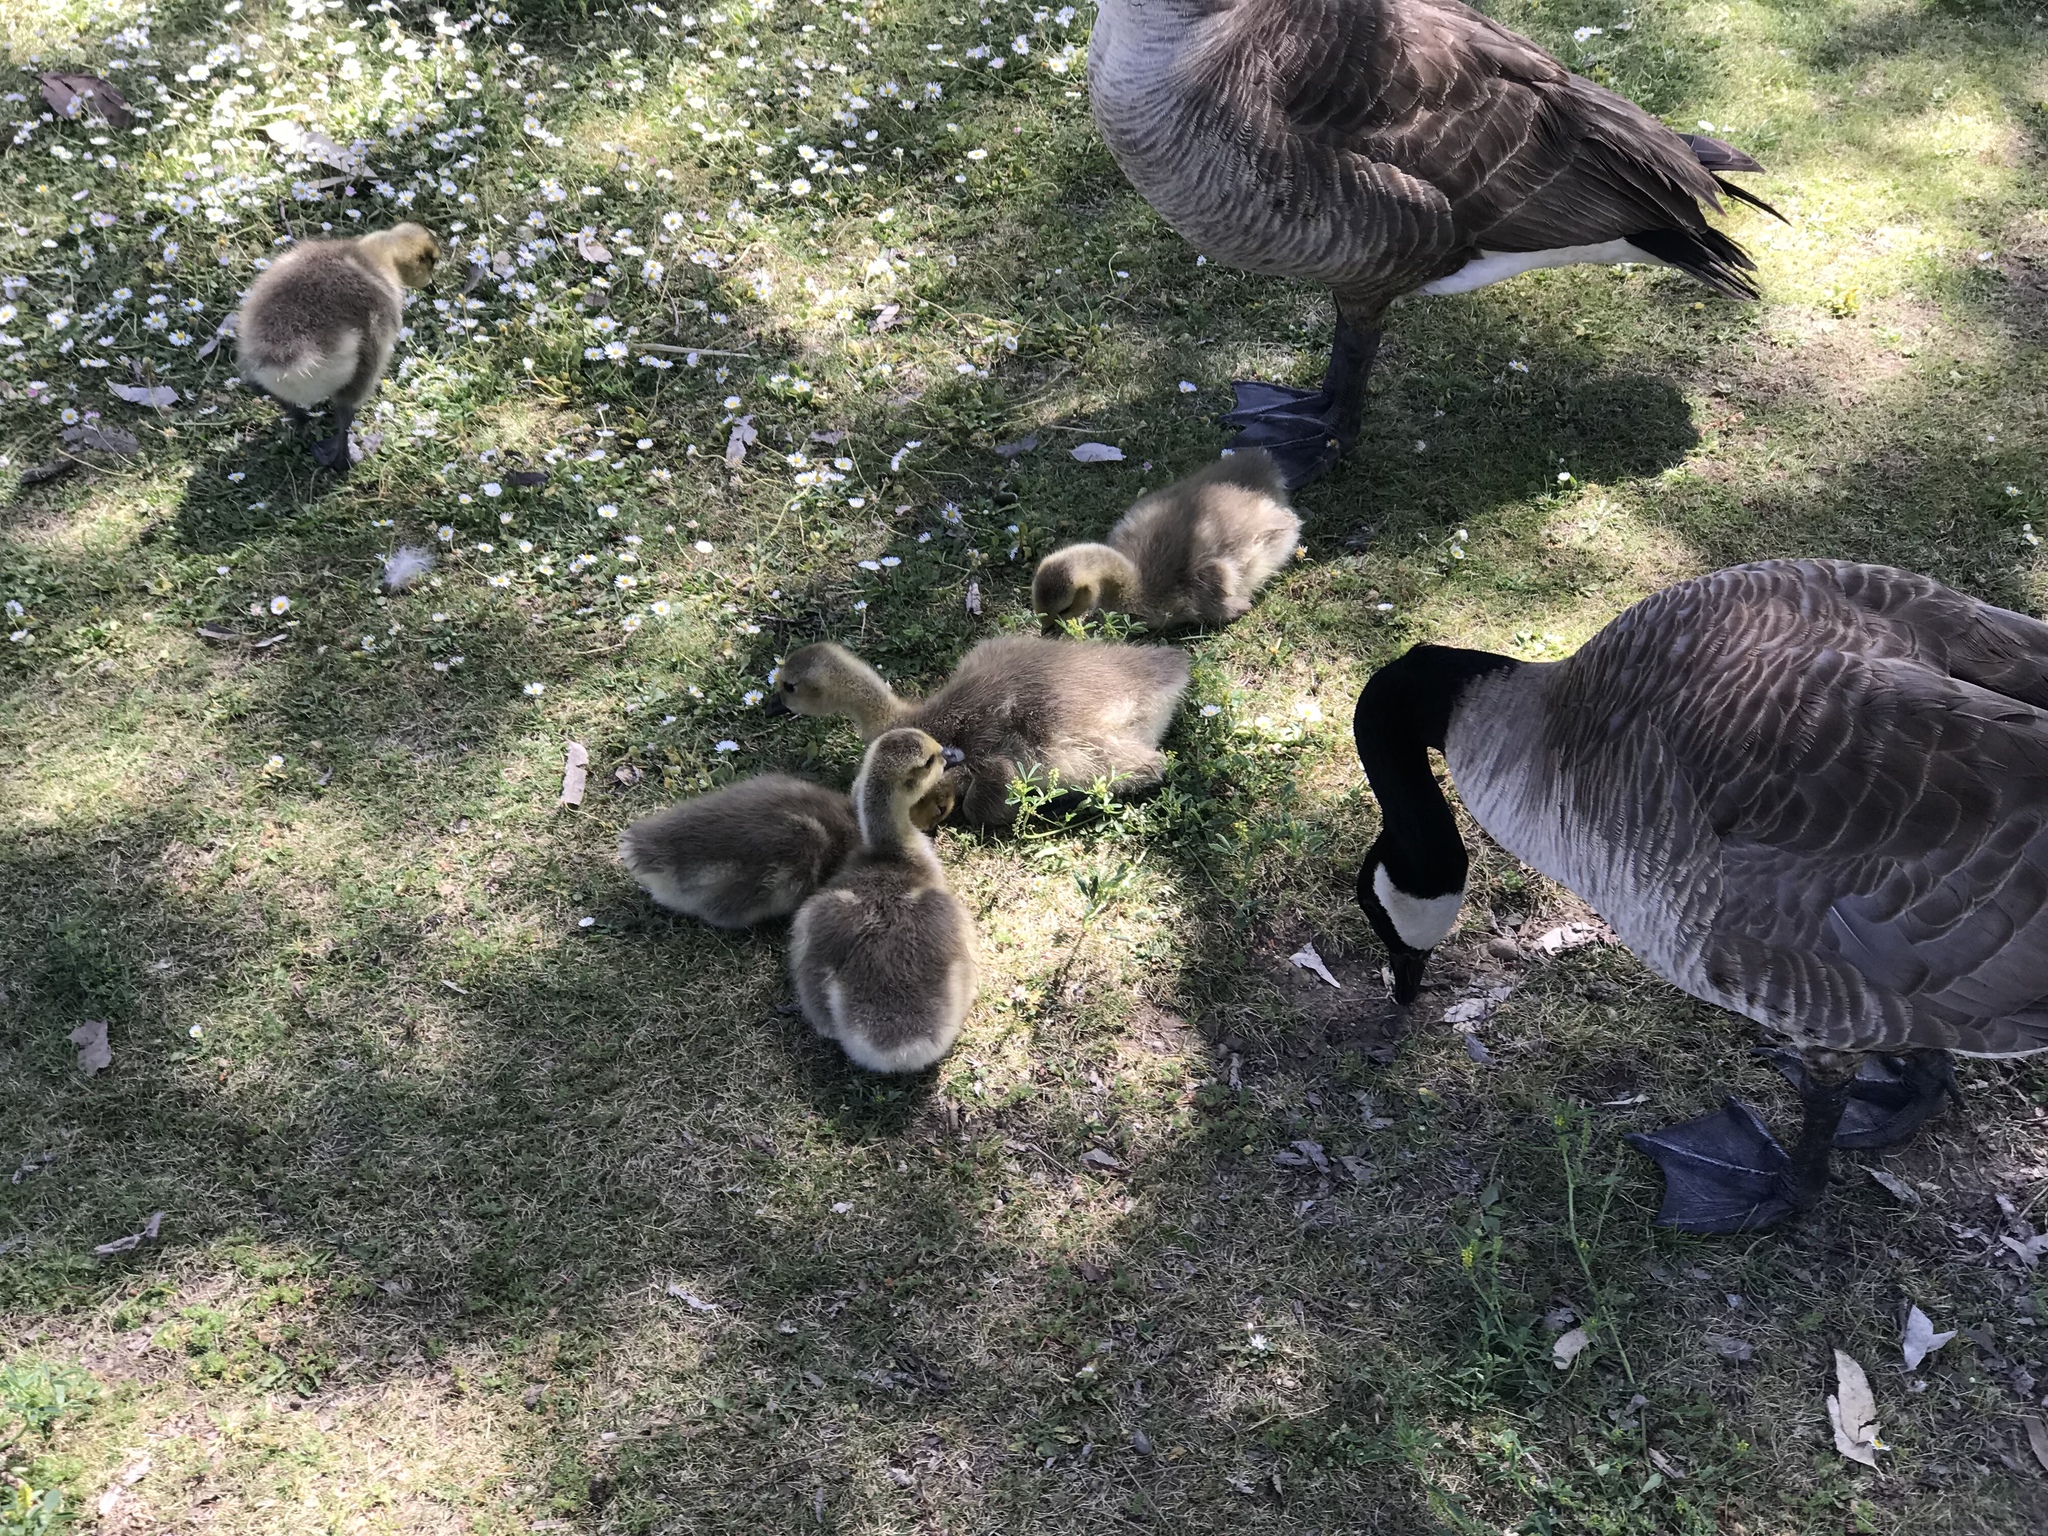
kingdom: Animalia
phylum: Chordata
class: Aves
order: Anseriformes
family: Anatidae
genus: Branta
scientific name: Branta canadensis
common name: Canada goose
